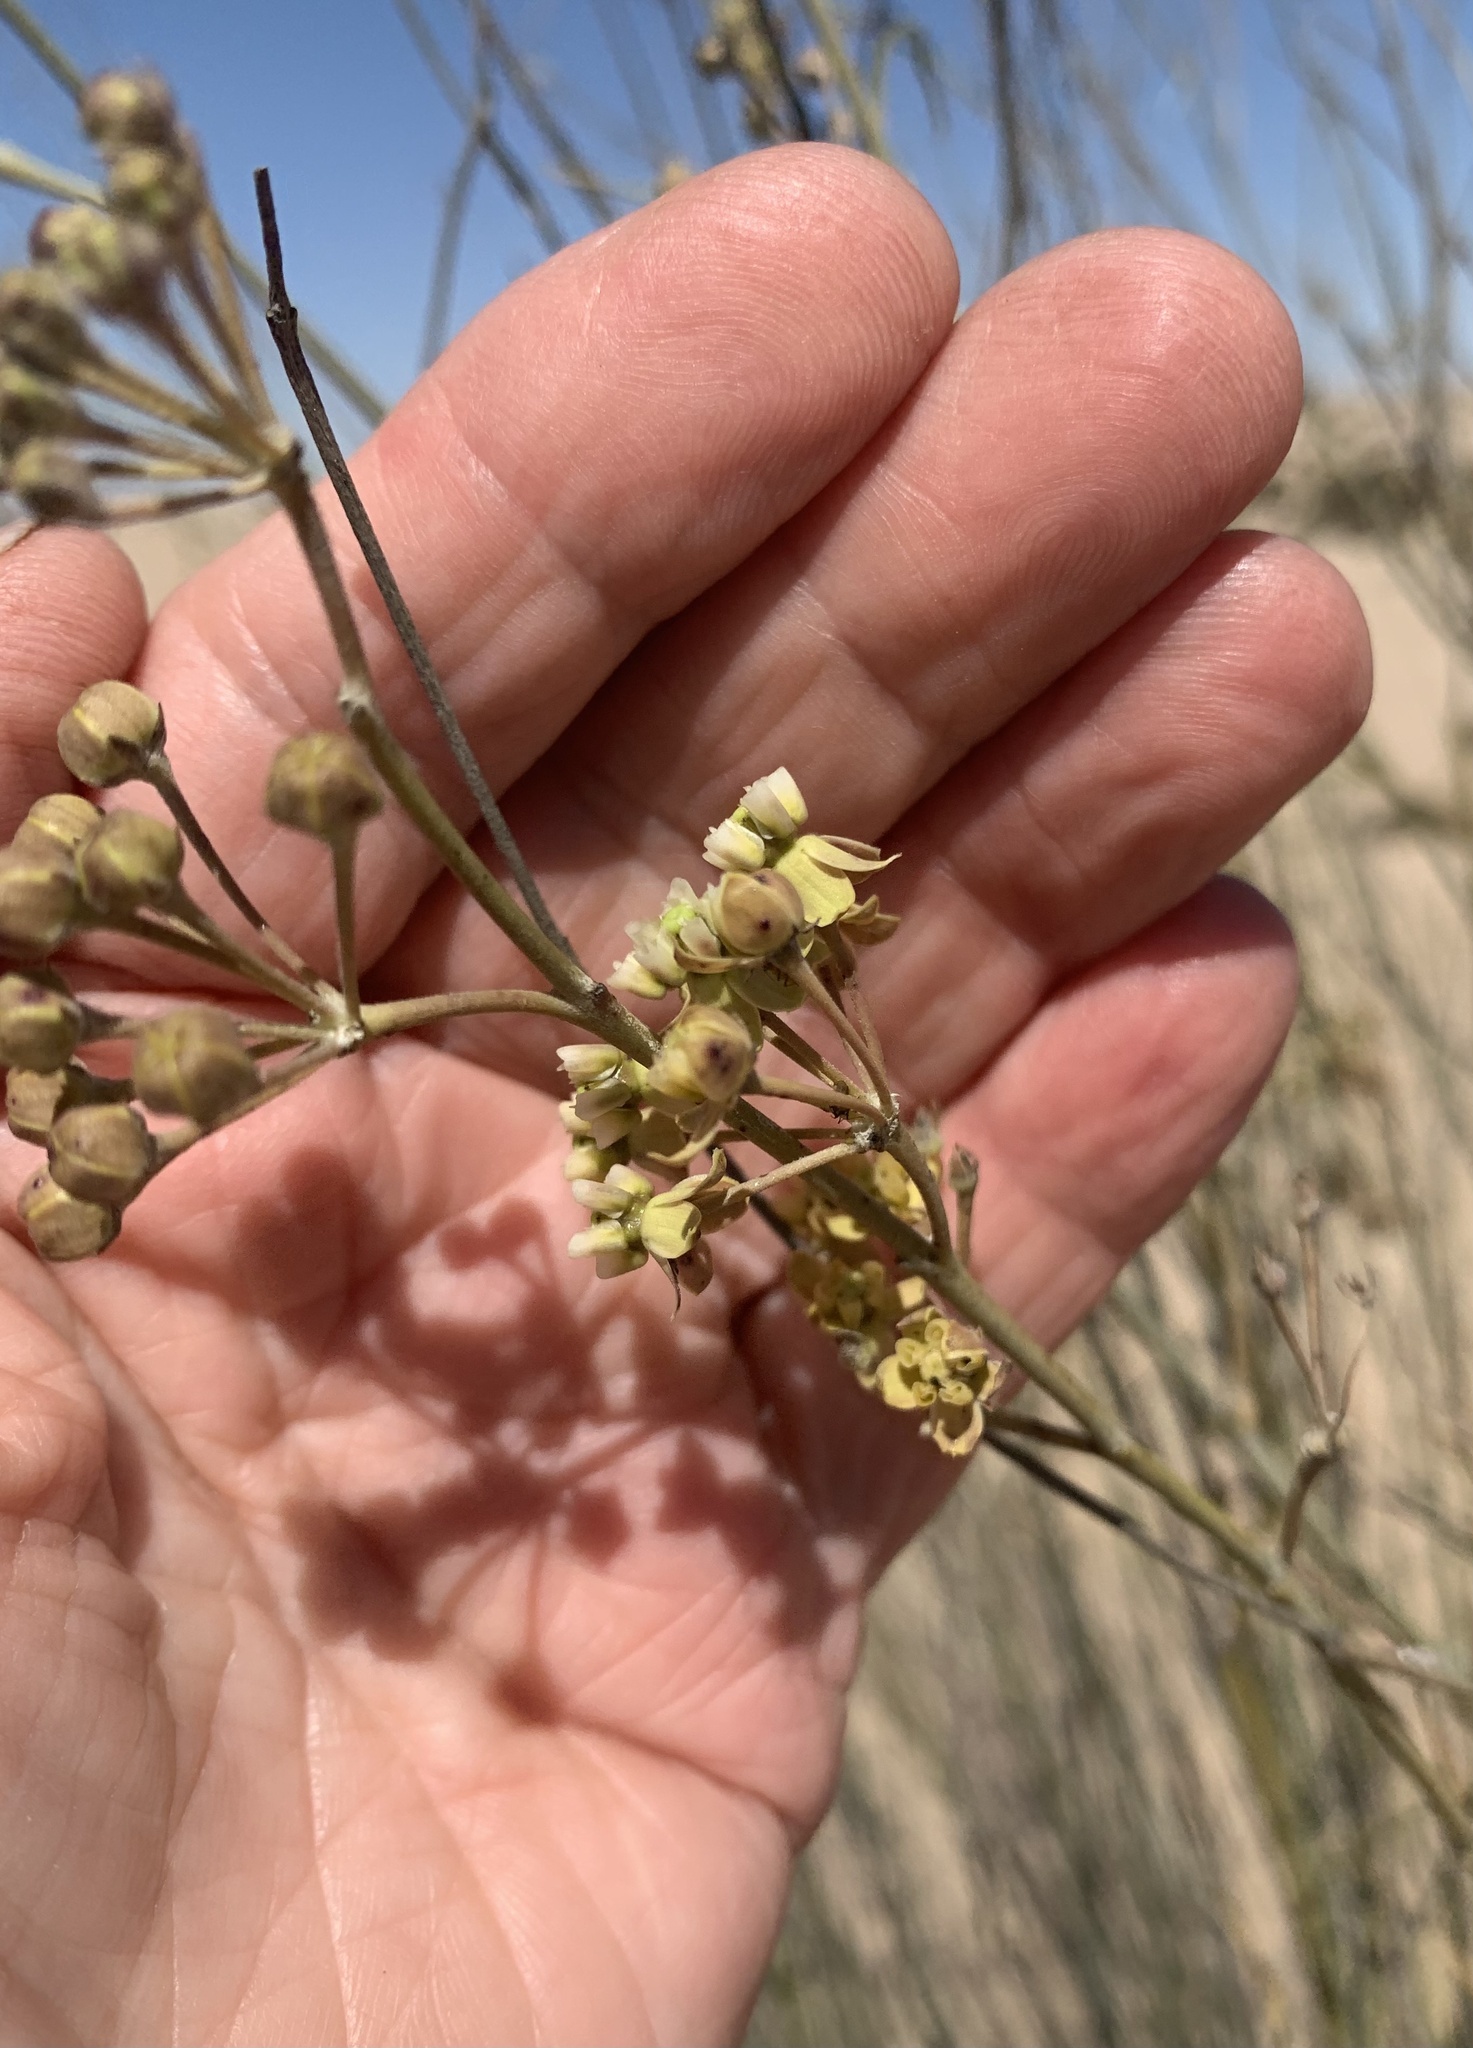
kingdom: Plantae
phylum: Tracheophyta
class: Magnoliopsida
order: Gentianales
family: Apocynaceae
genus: Gomphocarpus
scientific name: Gomphocarpus filiformis
